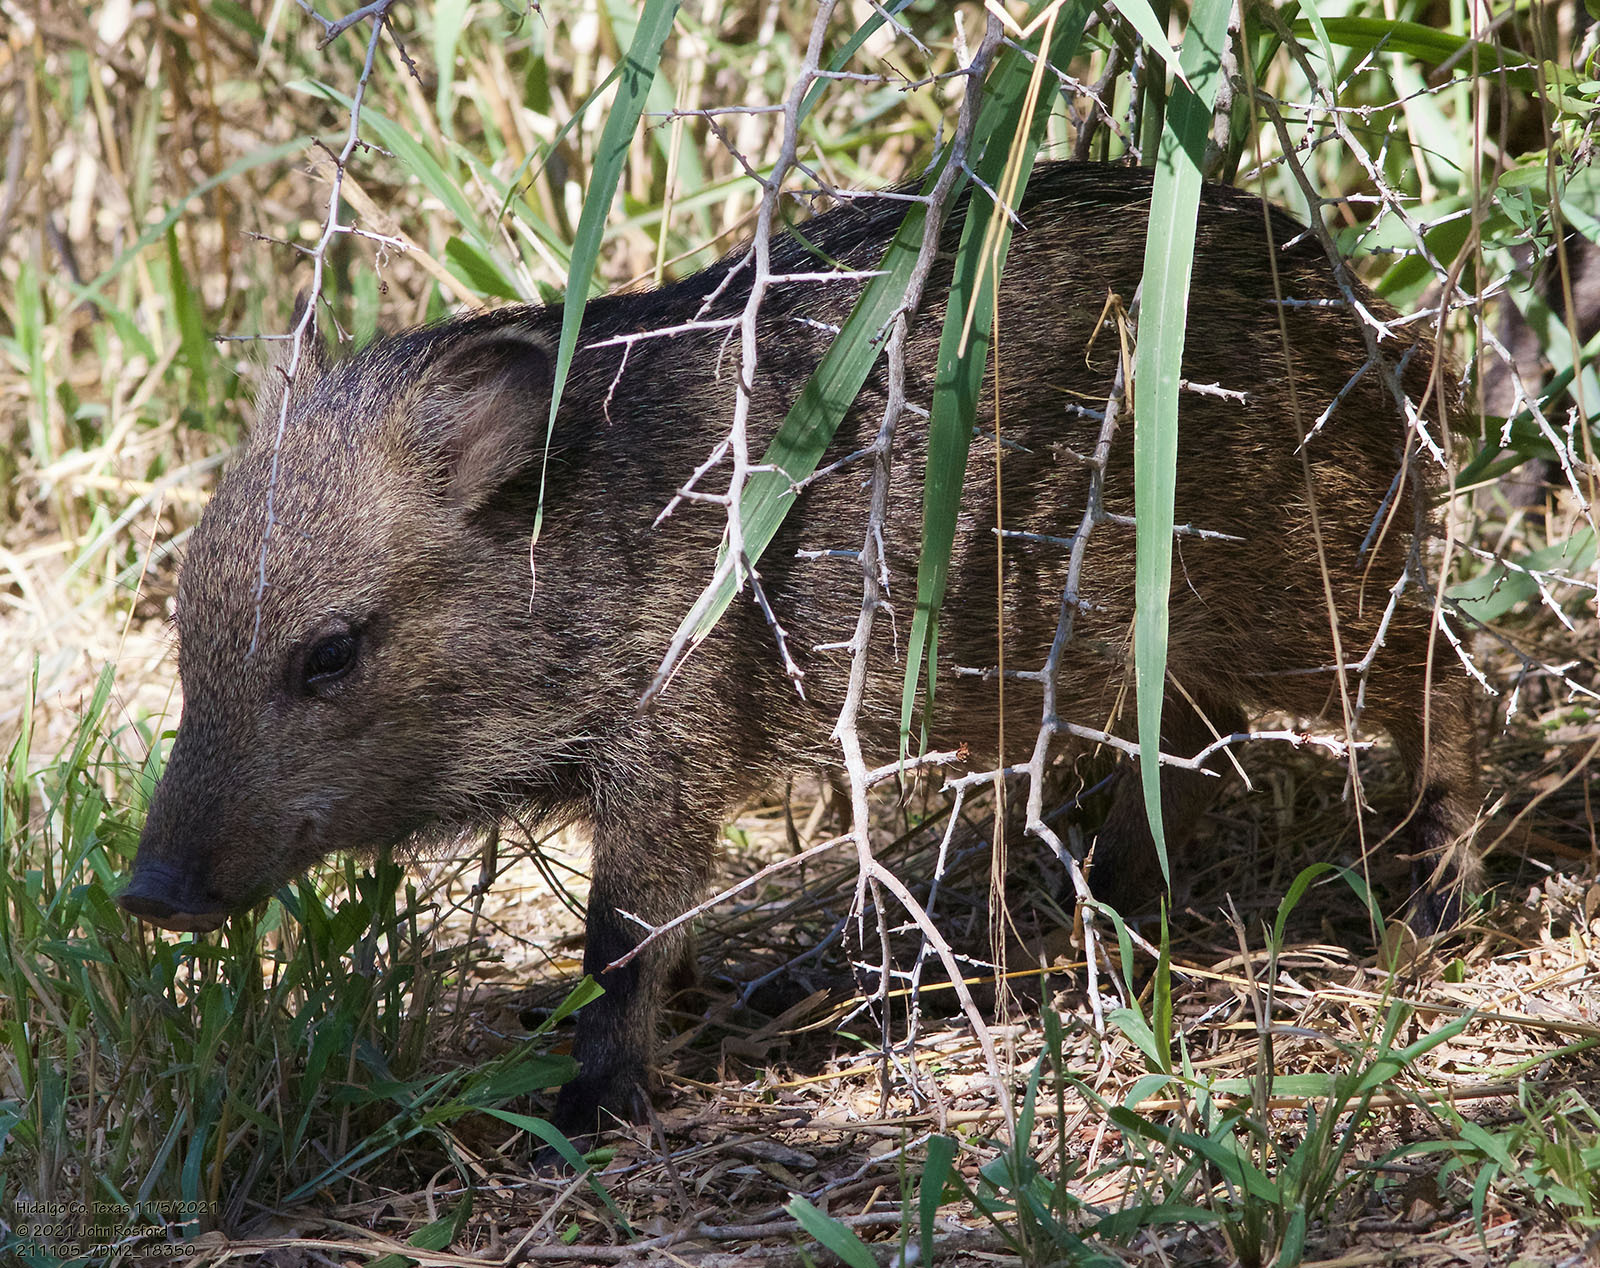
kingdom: Animalia
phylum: Chordata
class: Mammalia
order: Artiodactyla
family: Tayassuidae
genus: Pecari
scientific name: Pecari tajacu
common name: Collared peccary
